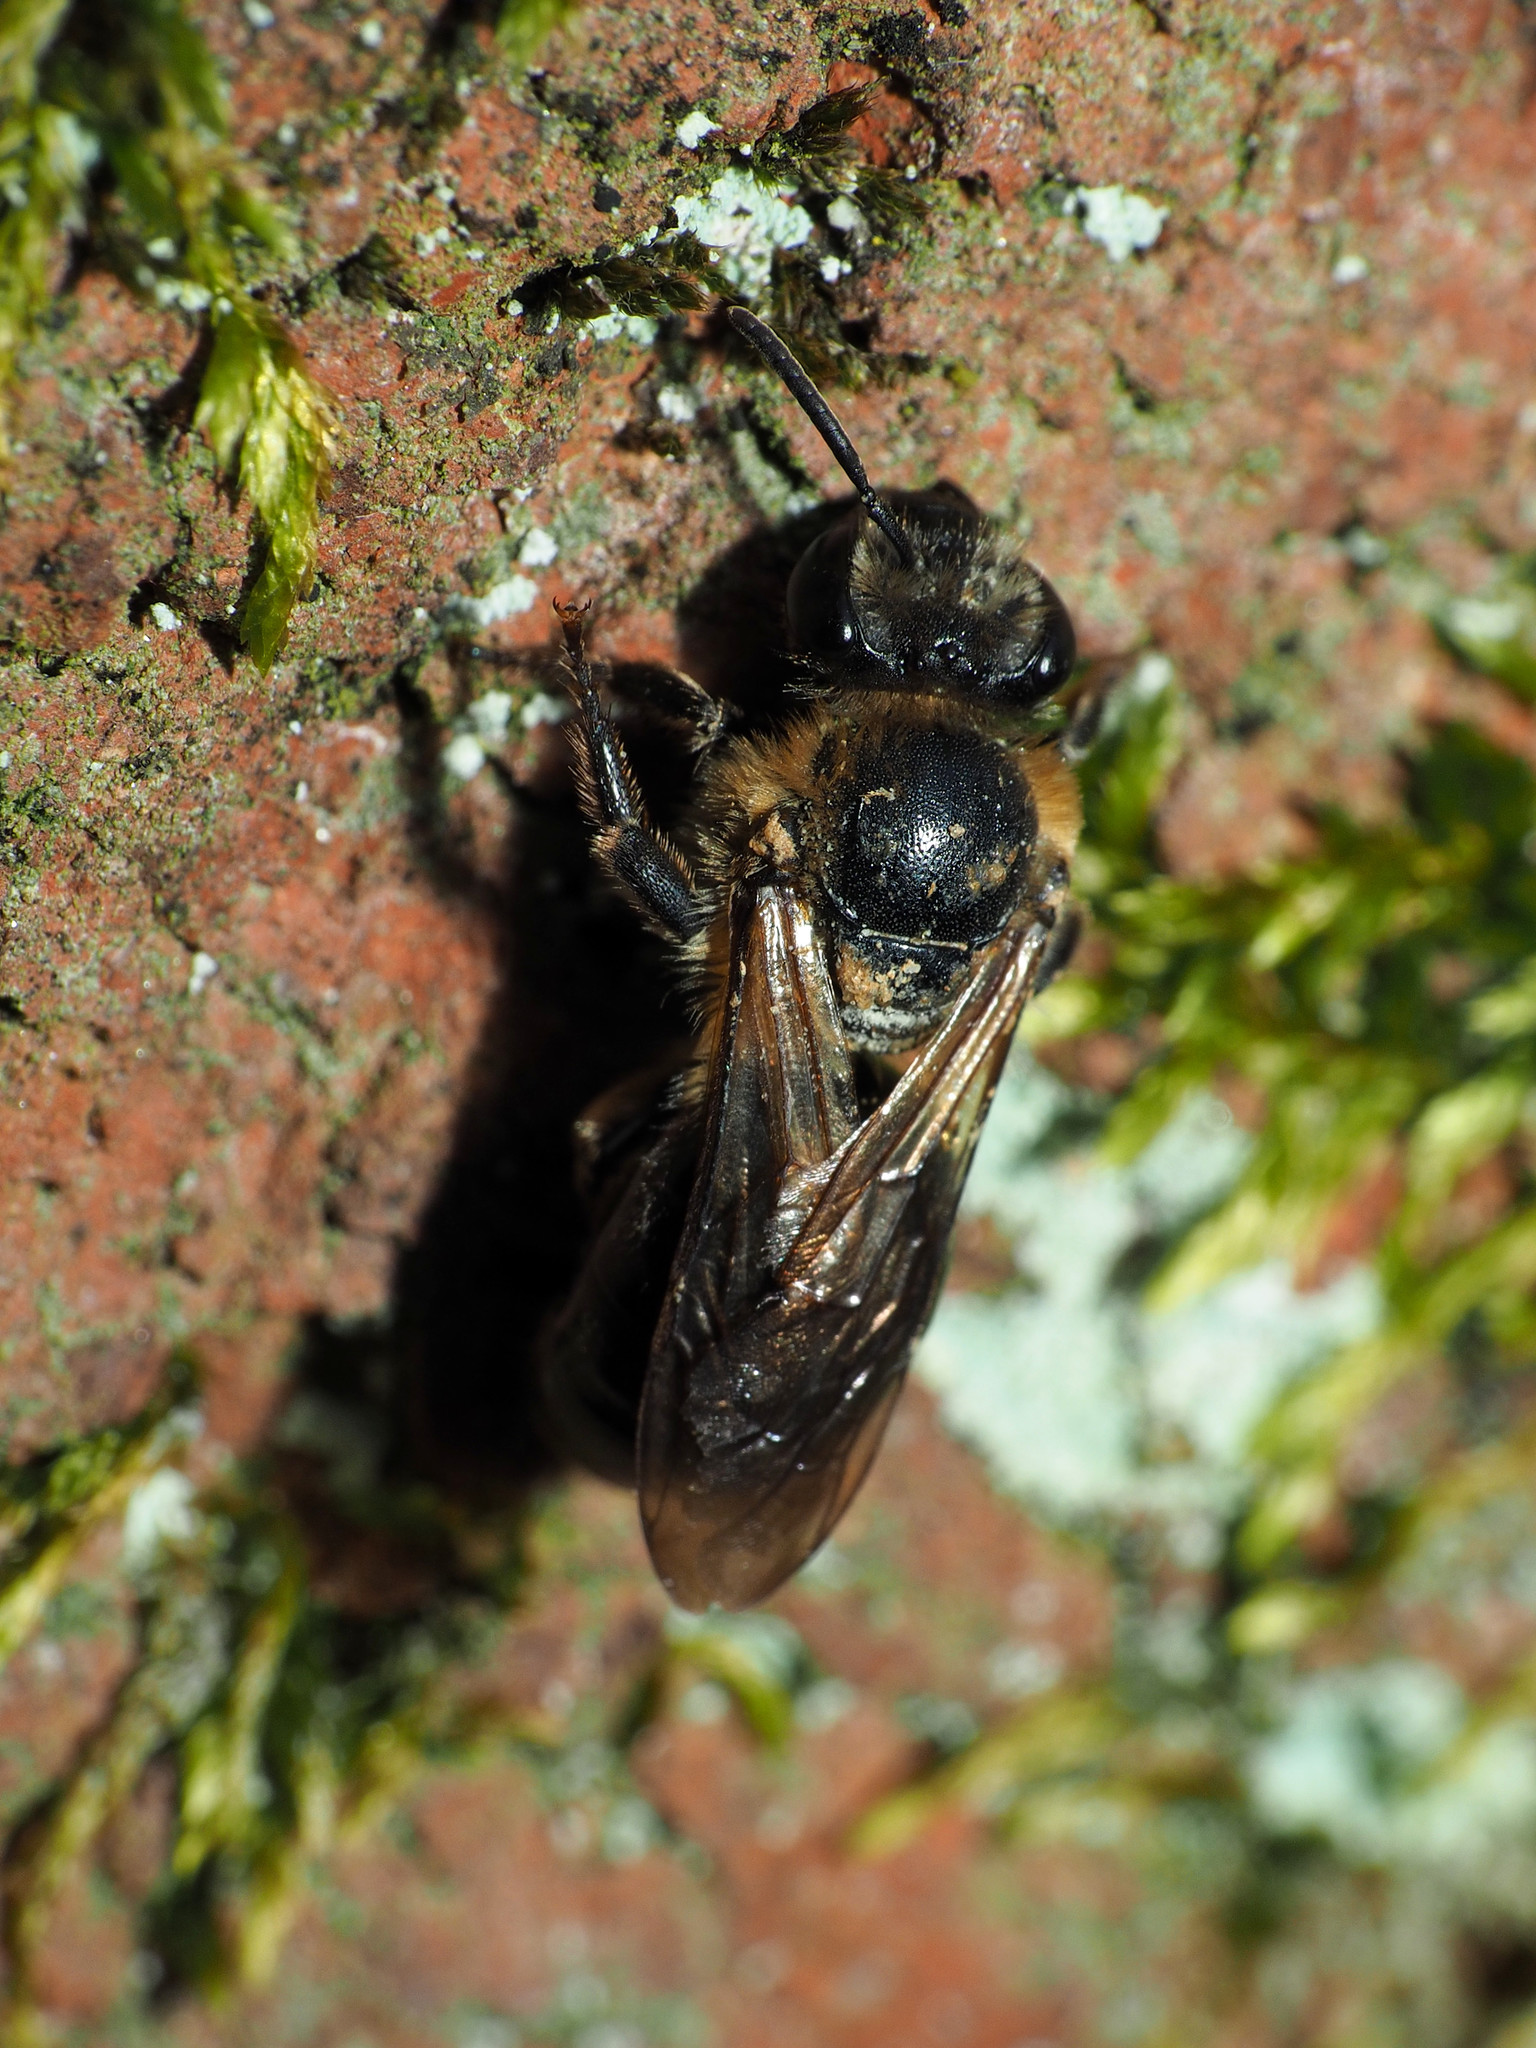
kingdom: Animalia
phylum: Arthropoda
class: Insecta
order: Hymenoptera
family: Colletidae
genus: Colletes
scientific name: Colletes thoracicus
